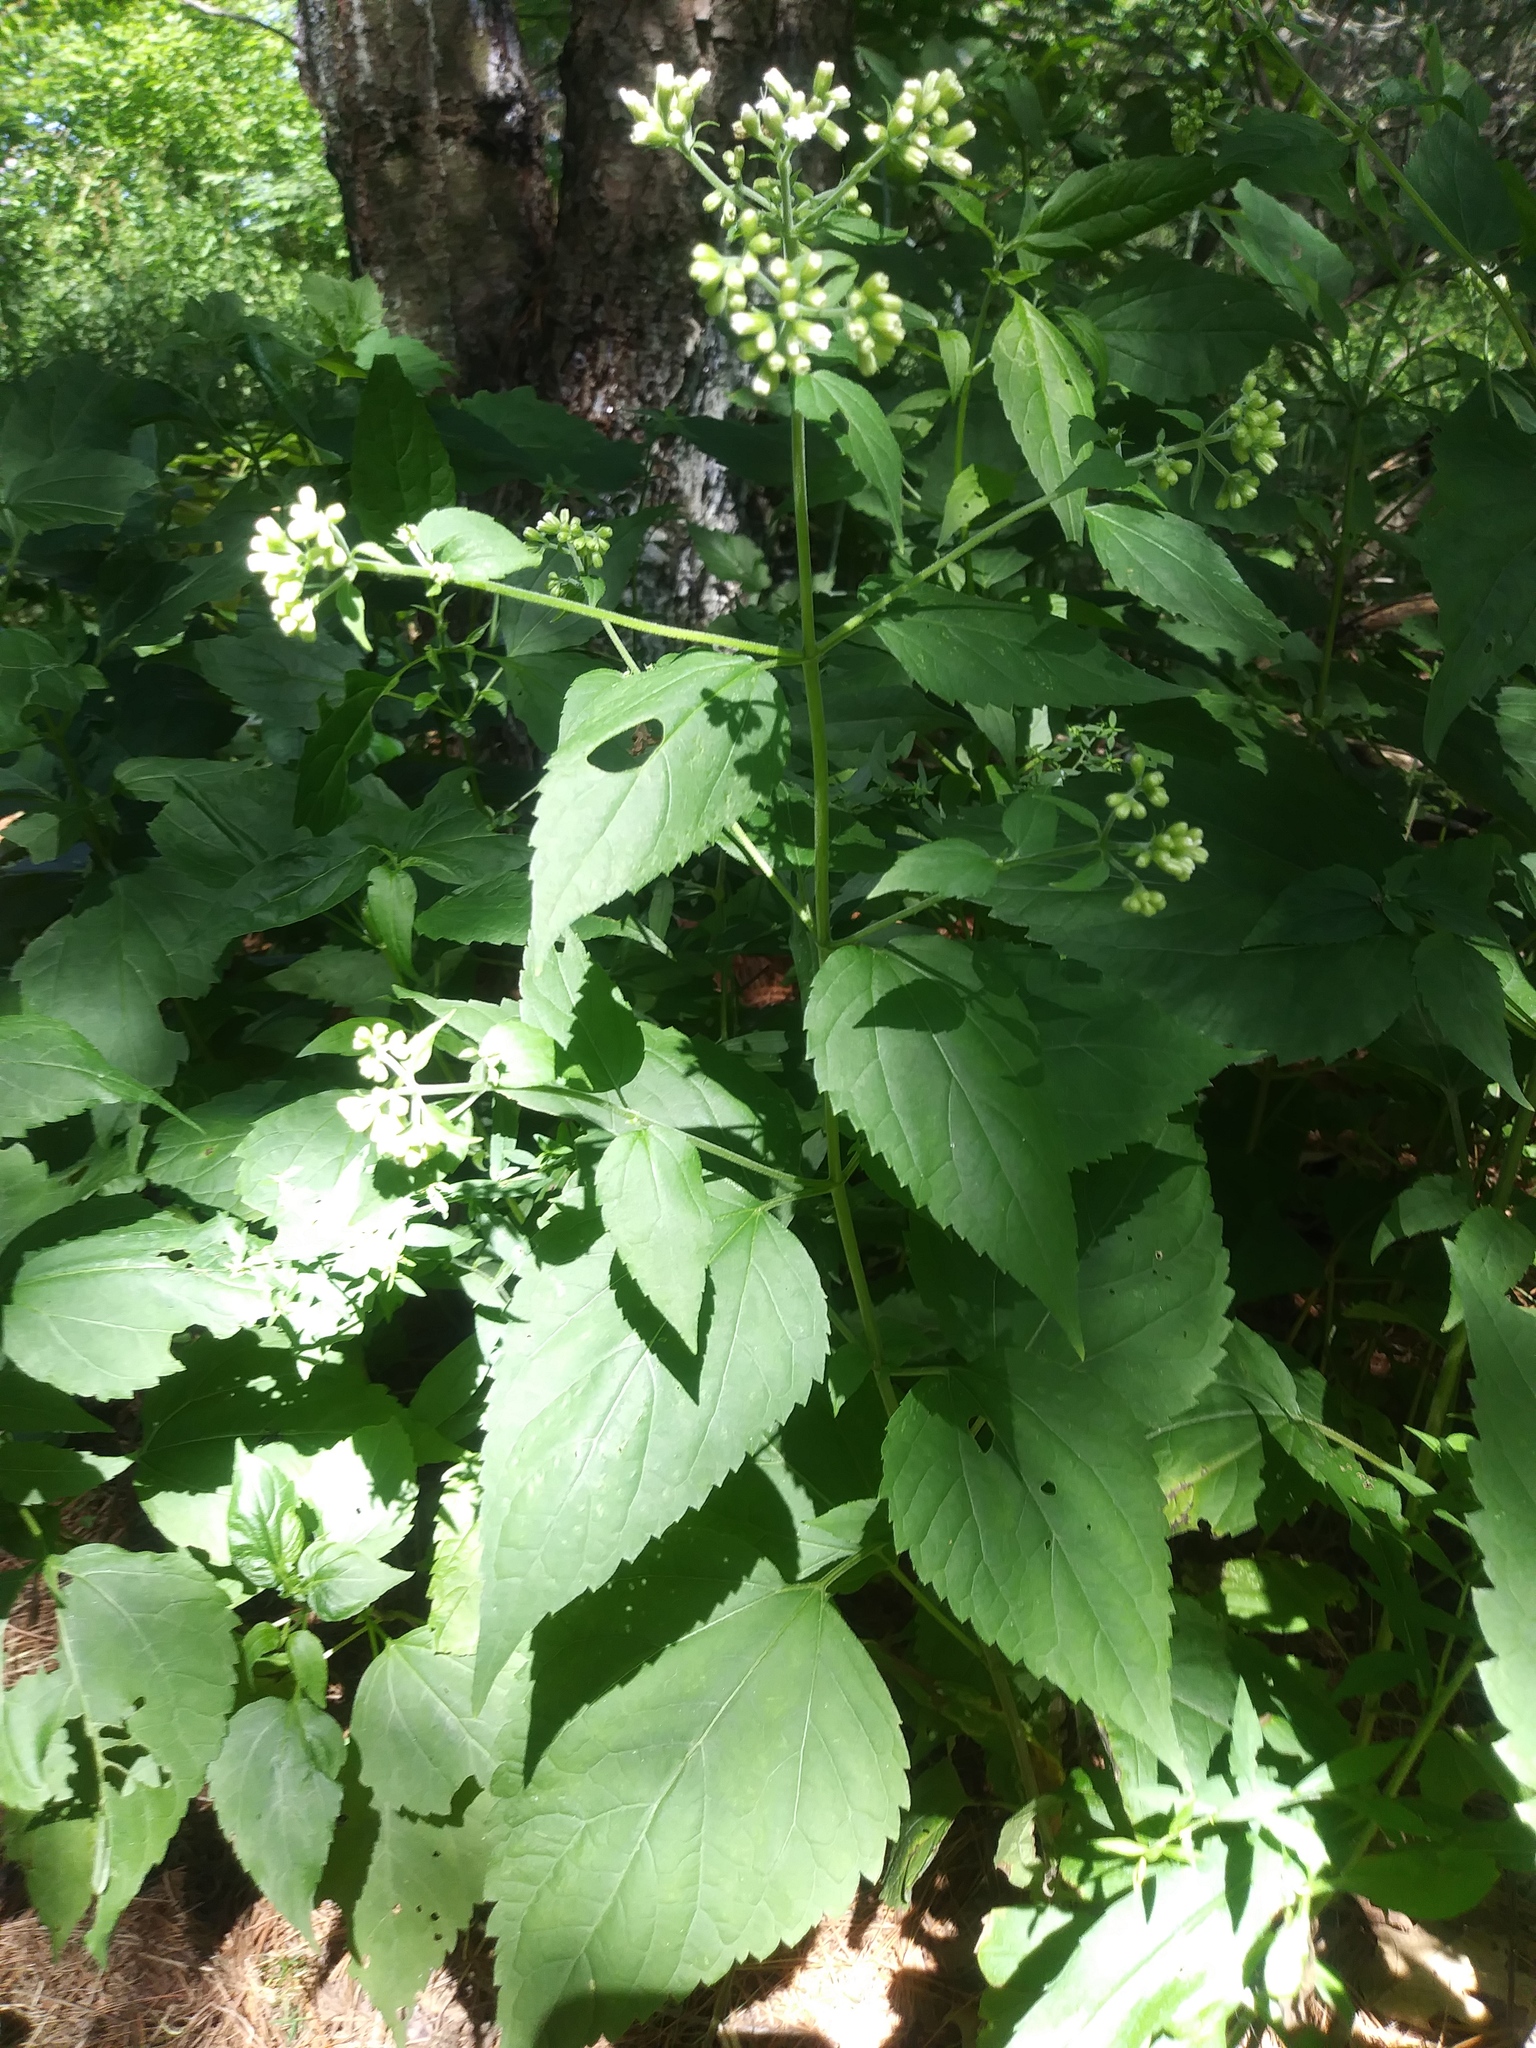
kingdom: Plantae
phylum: Tracheophyta
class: Magnoliopsida
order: Asterales
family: Asteraceae
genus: Ageratina
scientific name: Ageratina altissima
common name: White snakeroot
